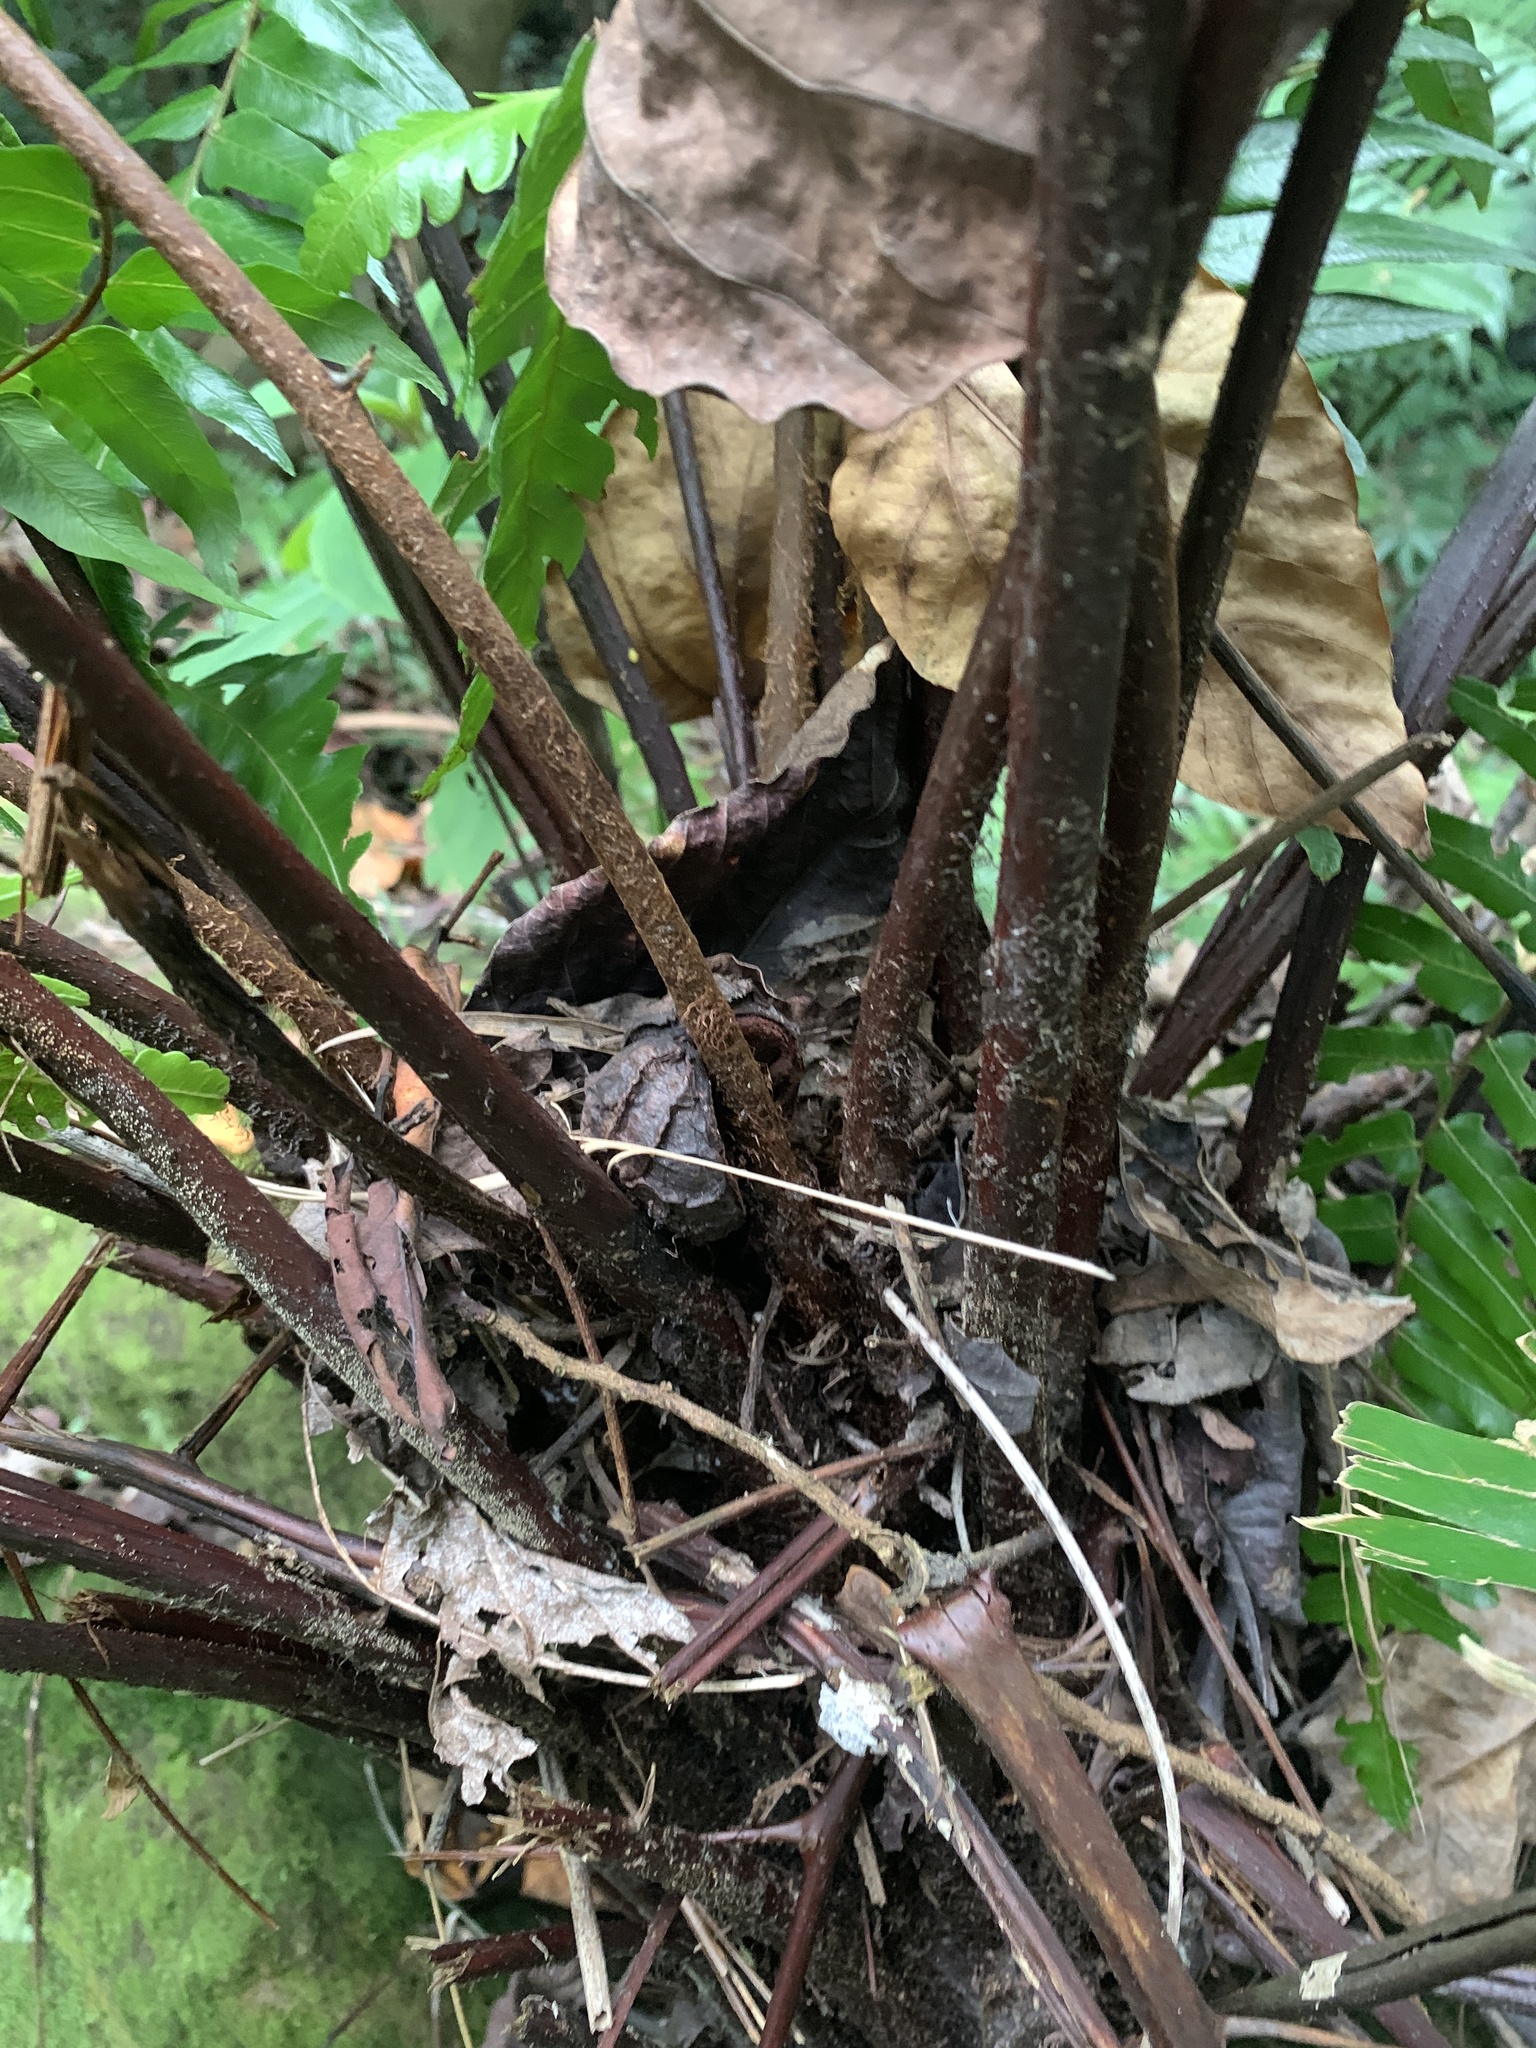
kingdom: Plantae
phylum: Tracheophyta
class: Polypodiopsida
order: Cyatheales
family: Cyatheaceae
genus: Gymnosphaera
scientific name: Gymnosphaera podophylla
